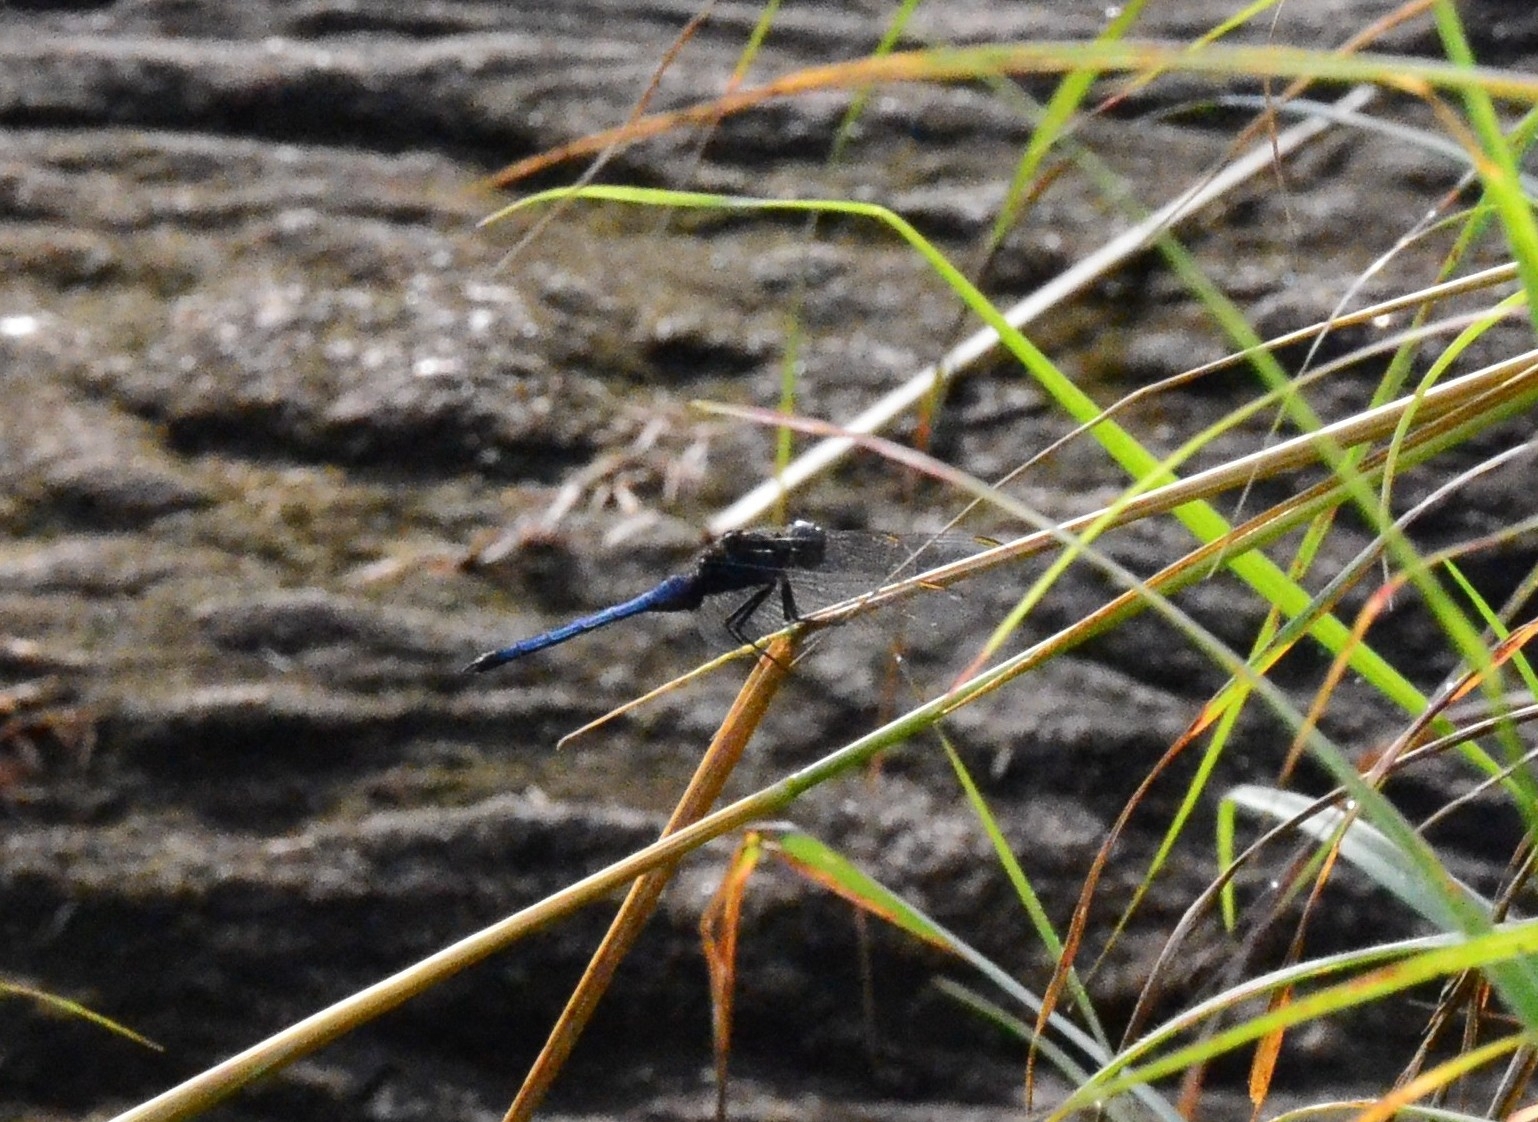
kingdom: Animalia
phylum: Arthropoda
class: Insecta
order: Odonata
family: Libellulidae
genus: Orthetrum
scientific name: Orthetrum glaucum
